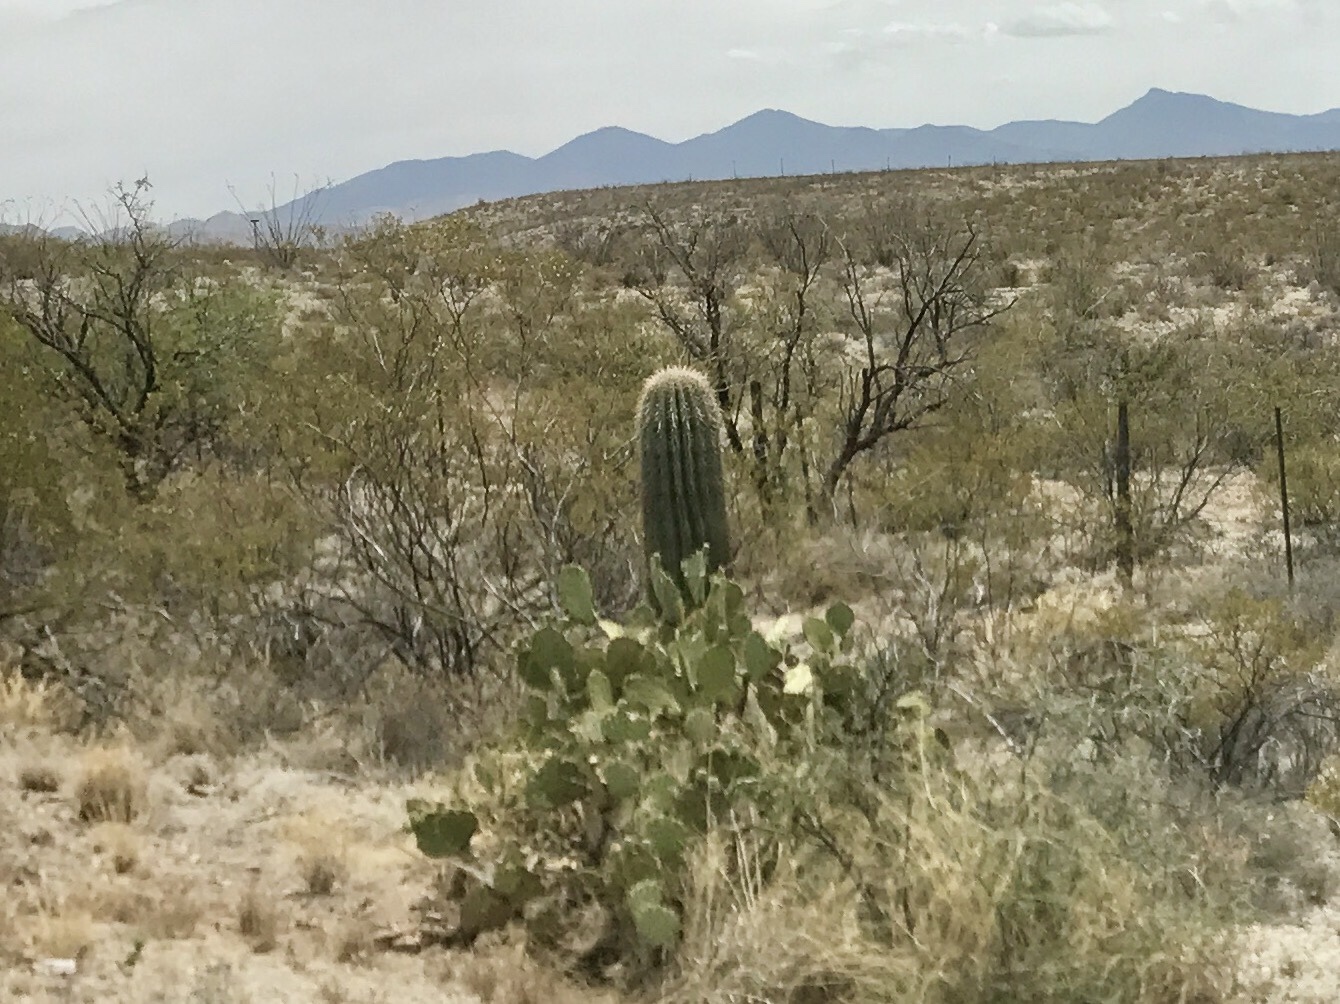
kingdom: Plantae
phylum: Tracheophyta
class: Magnoliopsida
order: Caryophyllales
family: Cactaceae
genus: Carnegiea
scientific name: Carnegiea gigantea
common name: Saguaro
